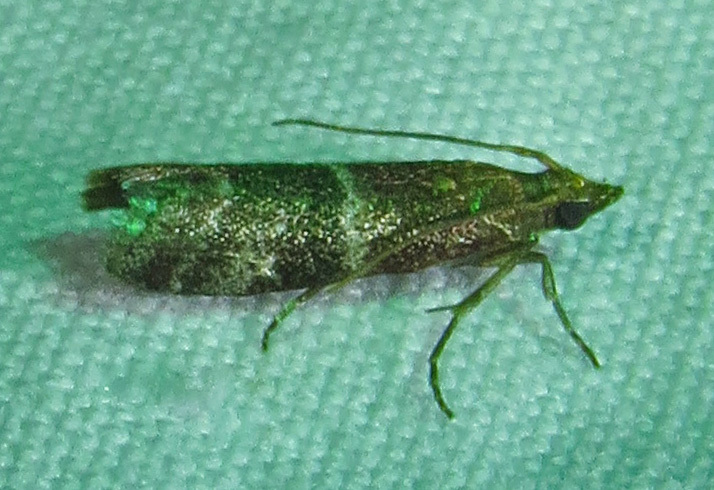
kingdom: Animalia
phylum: Arthropoda
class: Insecta
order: Lepidoptera
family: Pyralidae
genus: Moodna
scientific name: Moodna ostrinella
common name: Darker moodna moth
